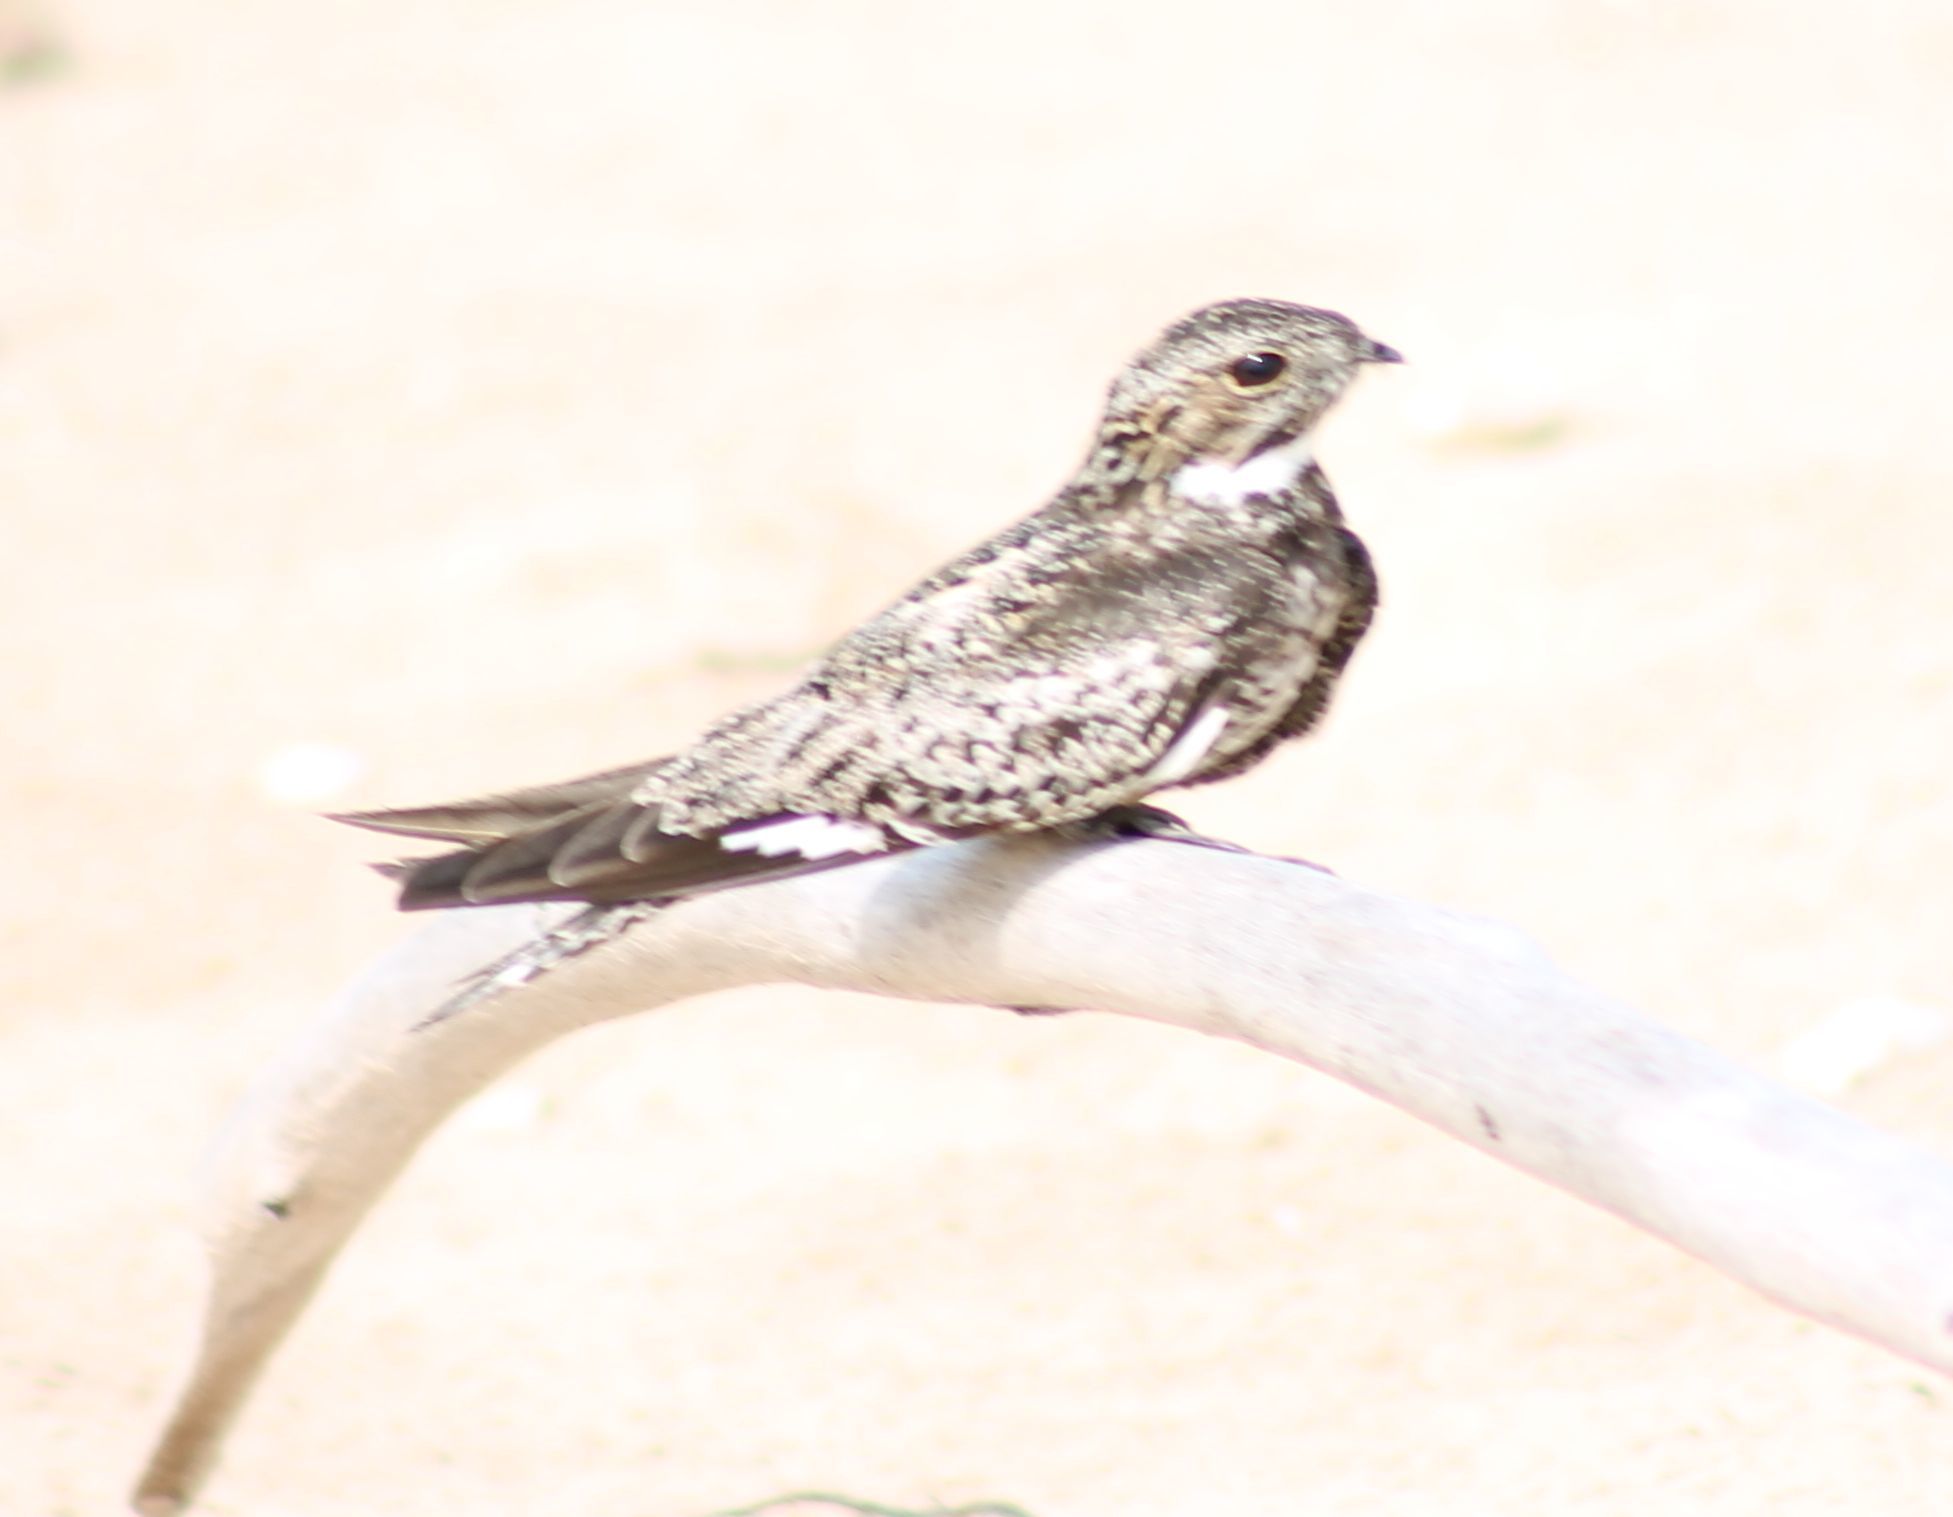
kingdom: Animalia
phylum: Chordata
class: Aves
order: Caprimulgiformes
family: Caprimulgidae
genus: Chordeiles
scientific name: Chordeiles minor
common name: Common nighthawk
